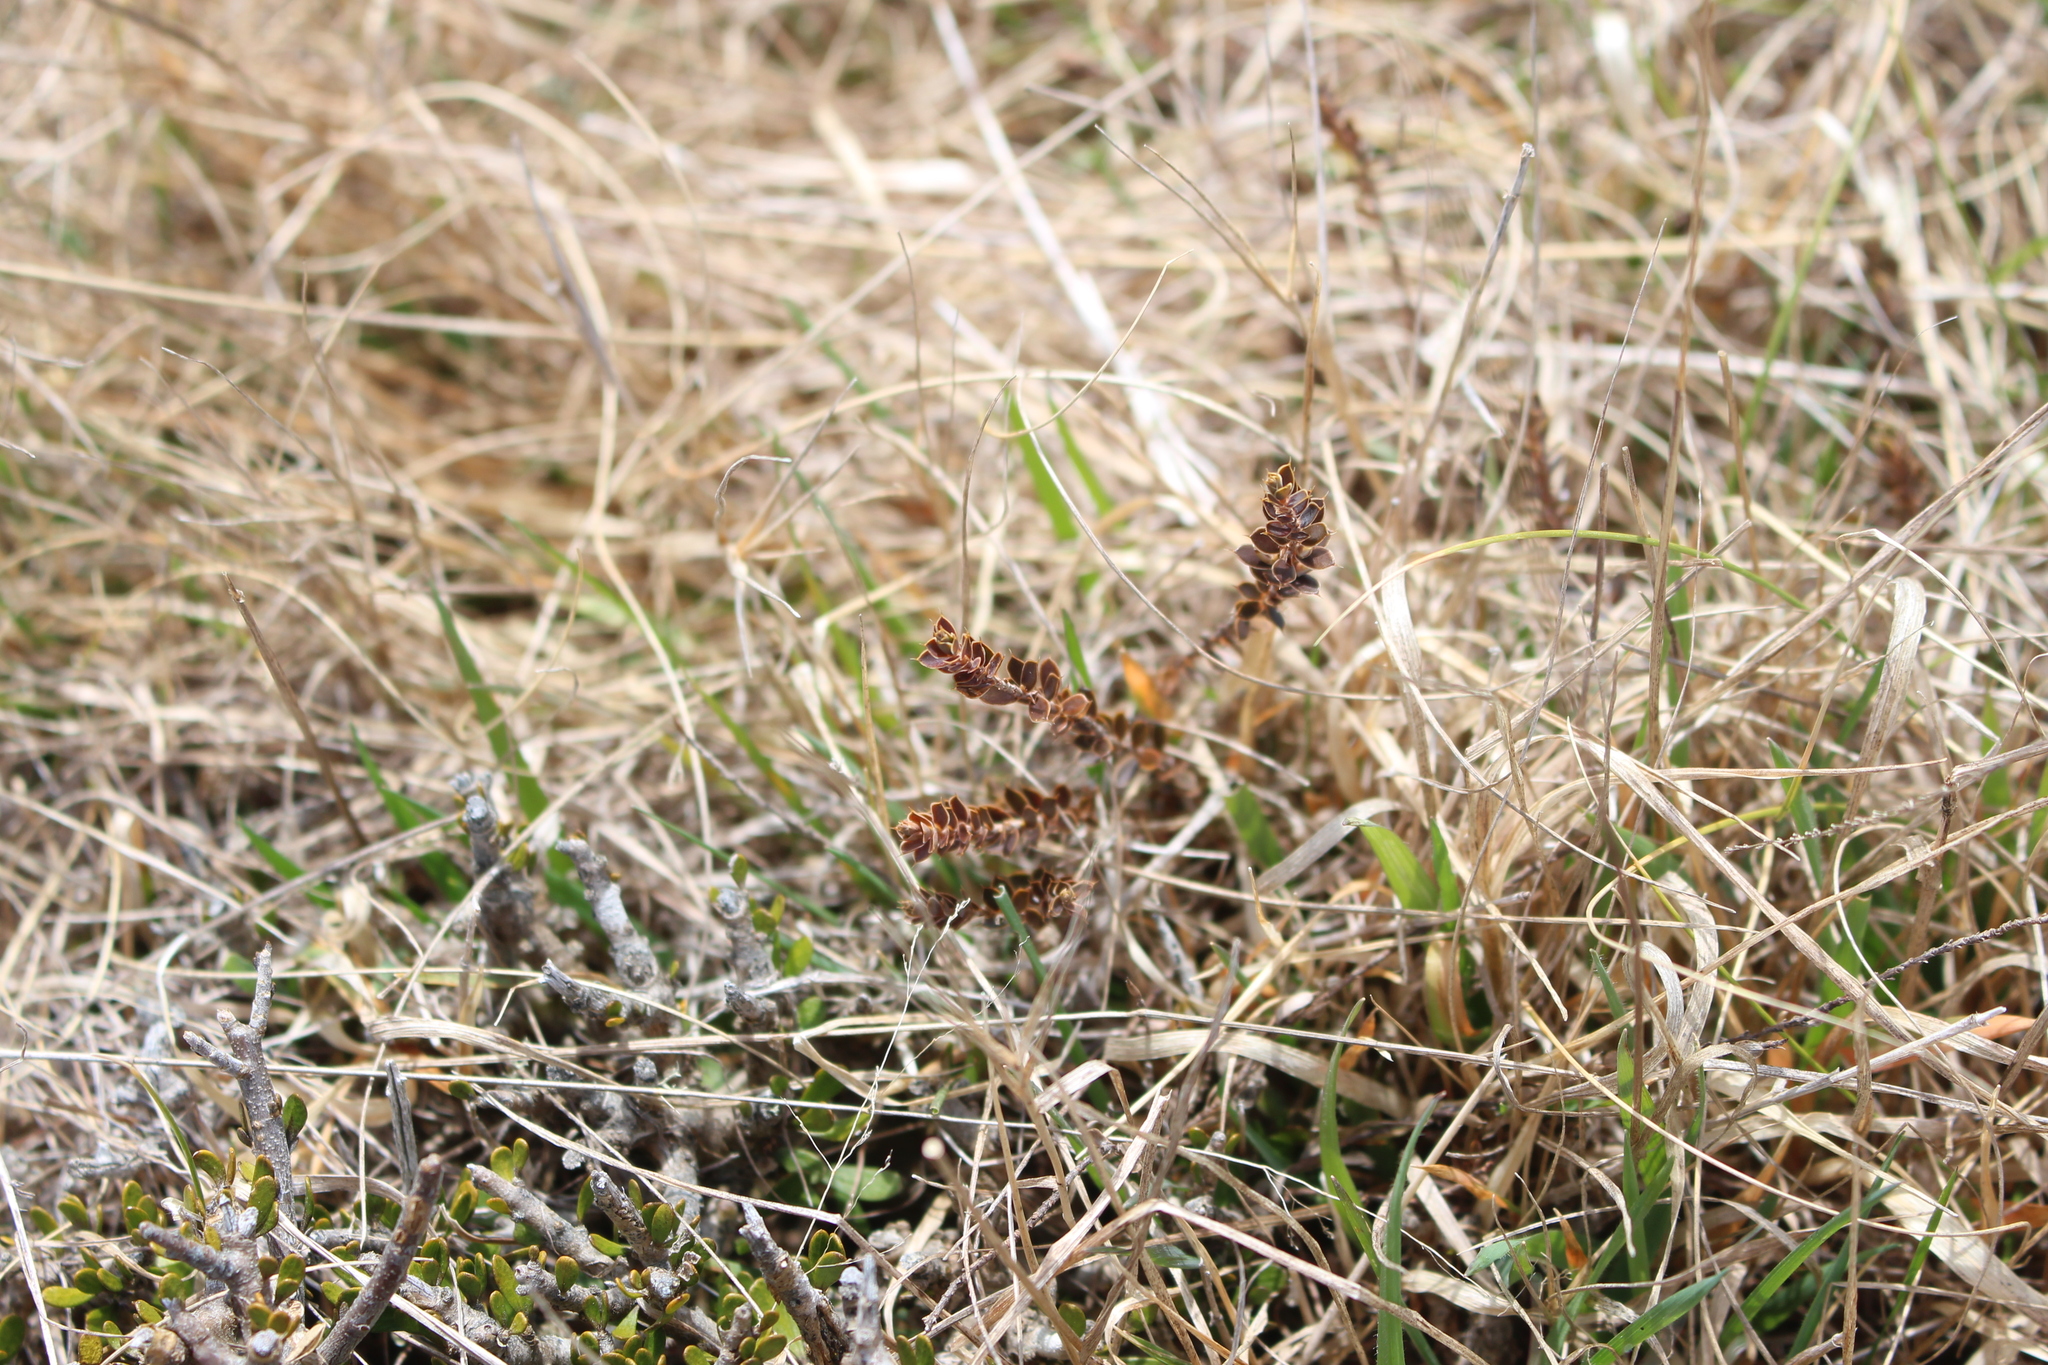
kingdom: Plantae
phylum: Tracheophyta
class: Magnoliopsida
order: Ericales
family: Ericaceae
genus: Styphelia
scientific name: Styphelia nesophila
